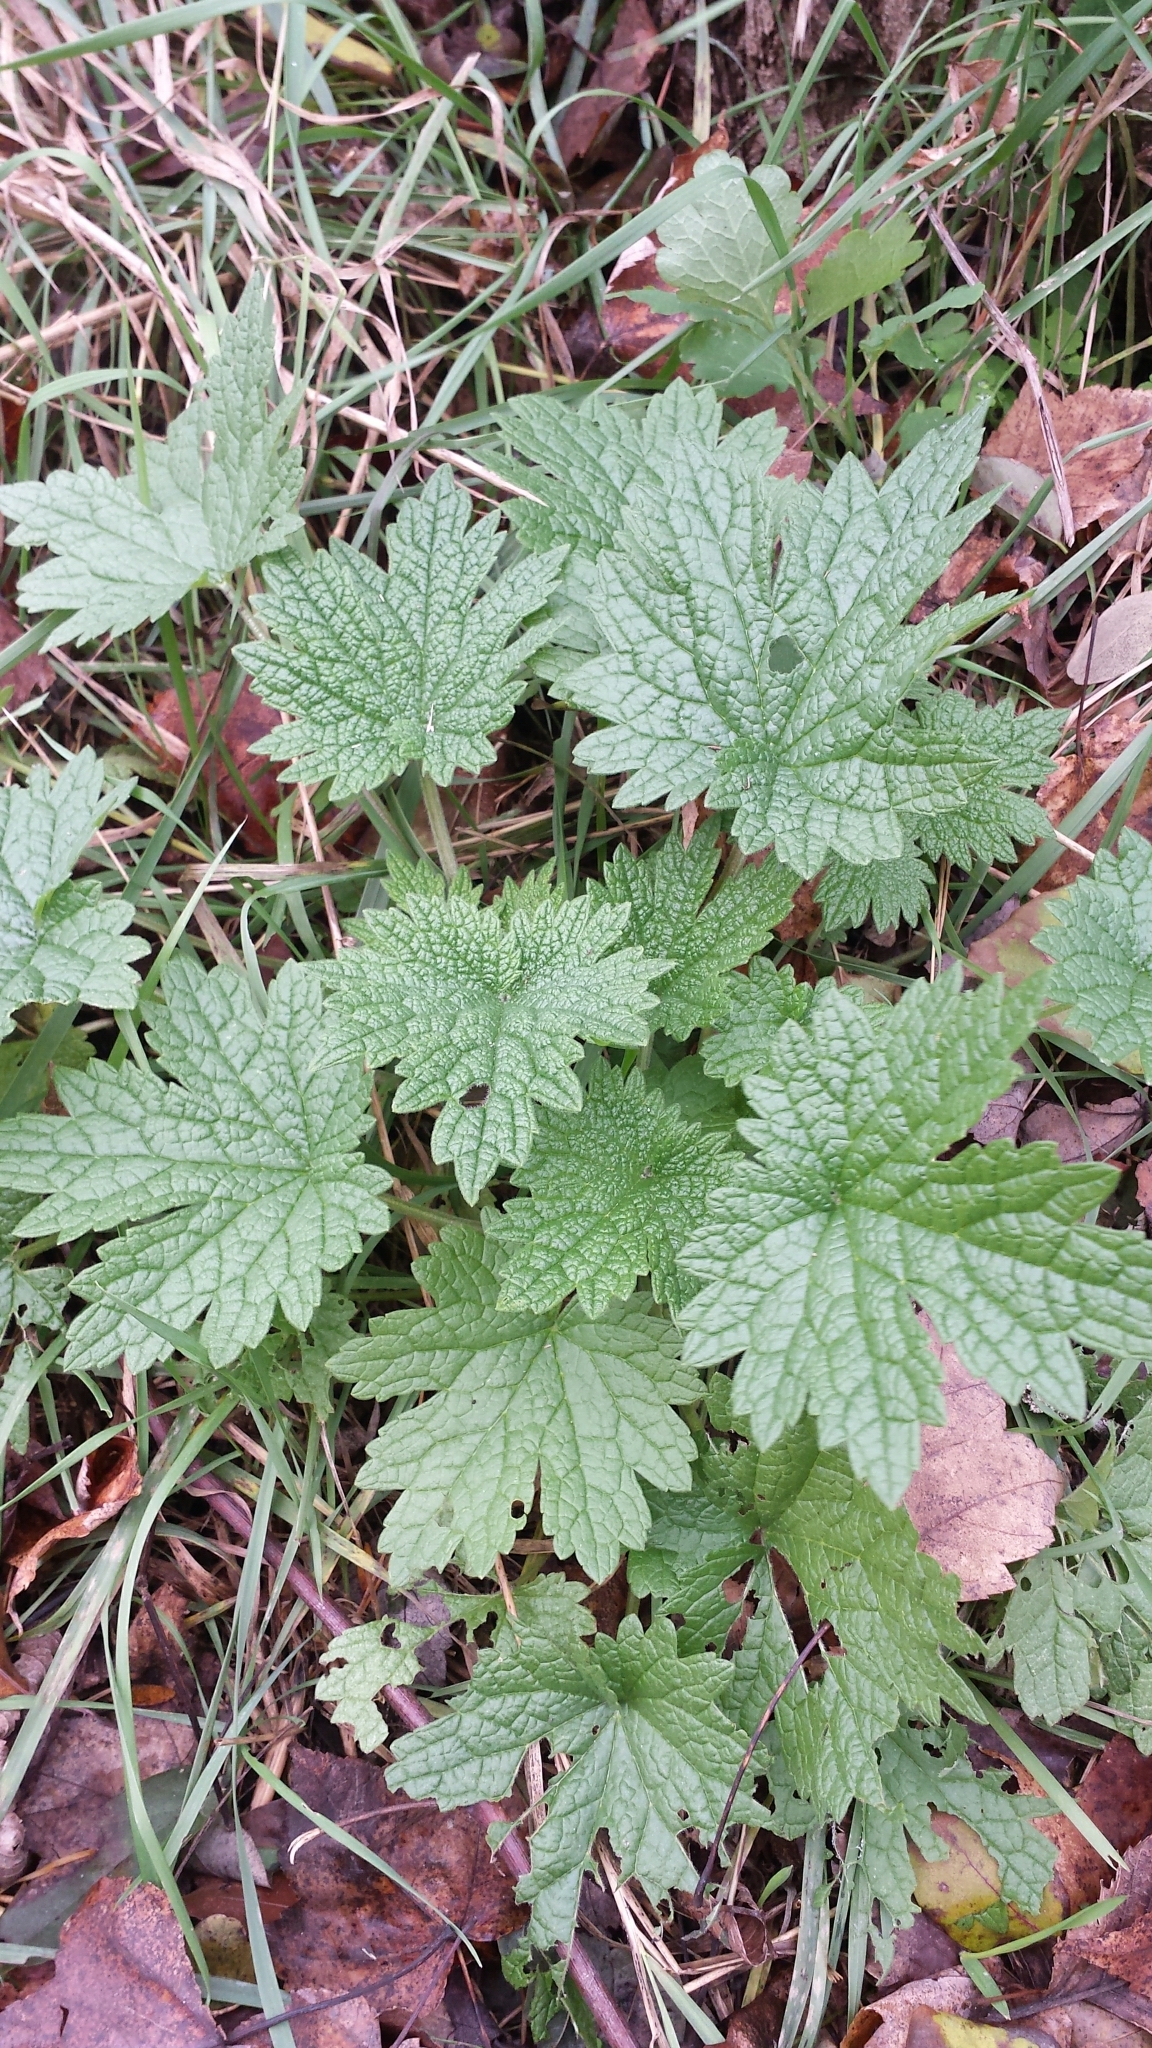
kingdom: Plantae
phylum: Tracheophyta
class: Magnoliopsida
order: Lamiales
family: Lamiaceae
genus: Leonurus
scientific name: Leonurus cardiaca
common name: Motherwort
